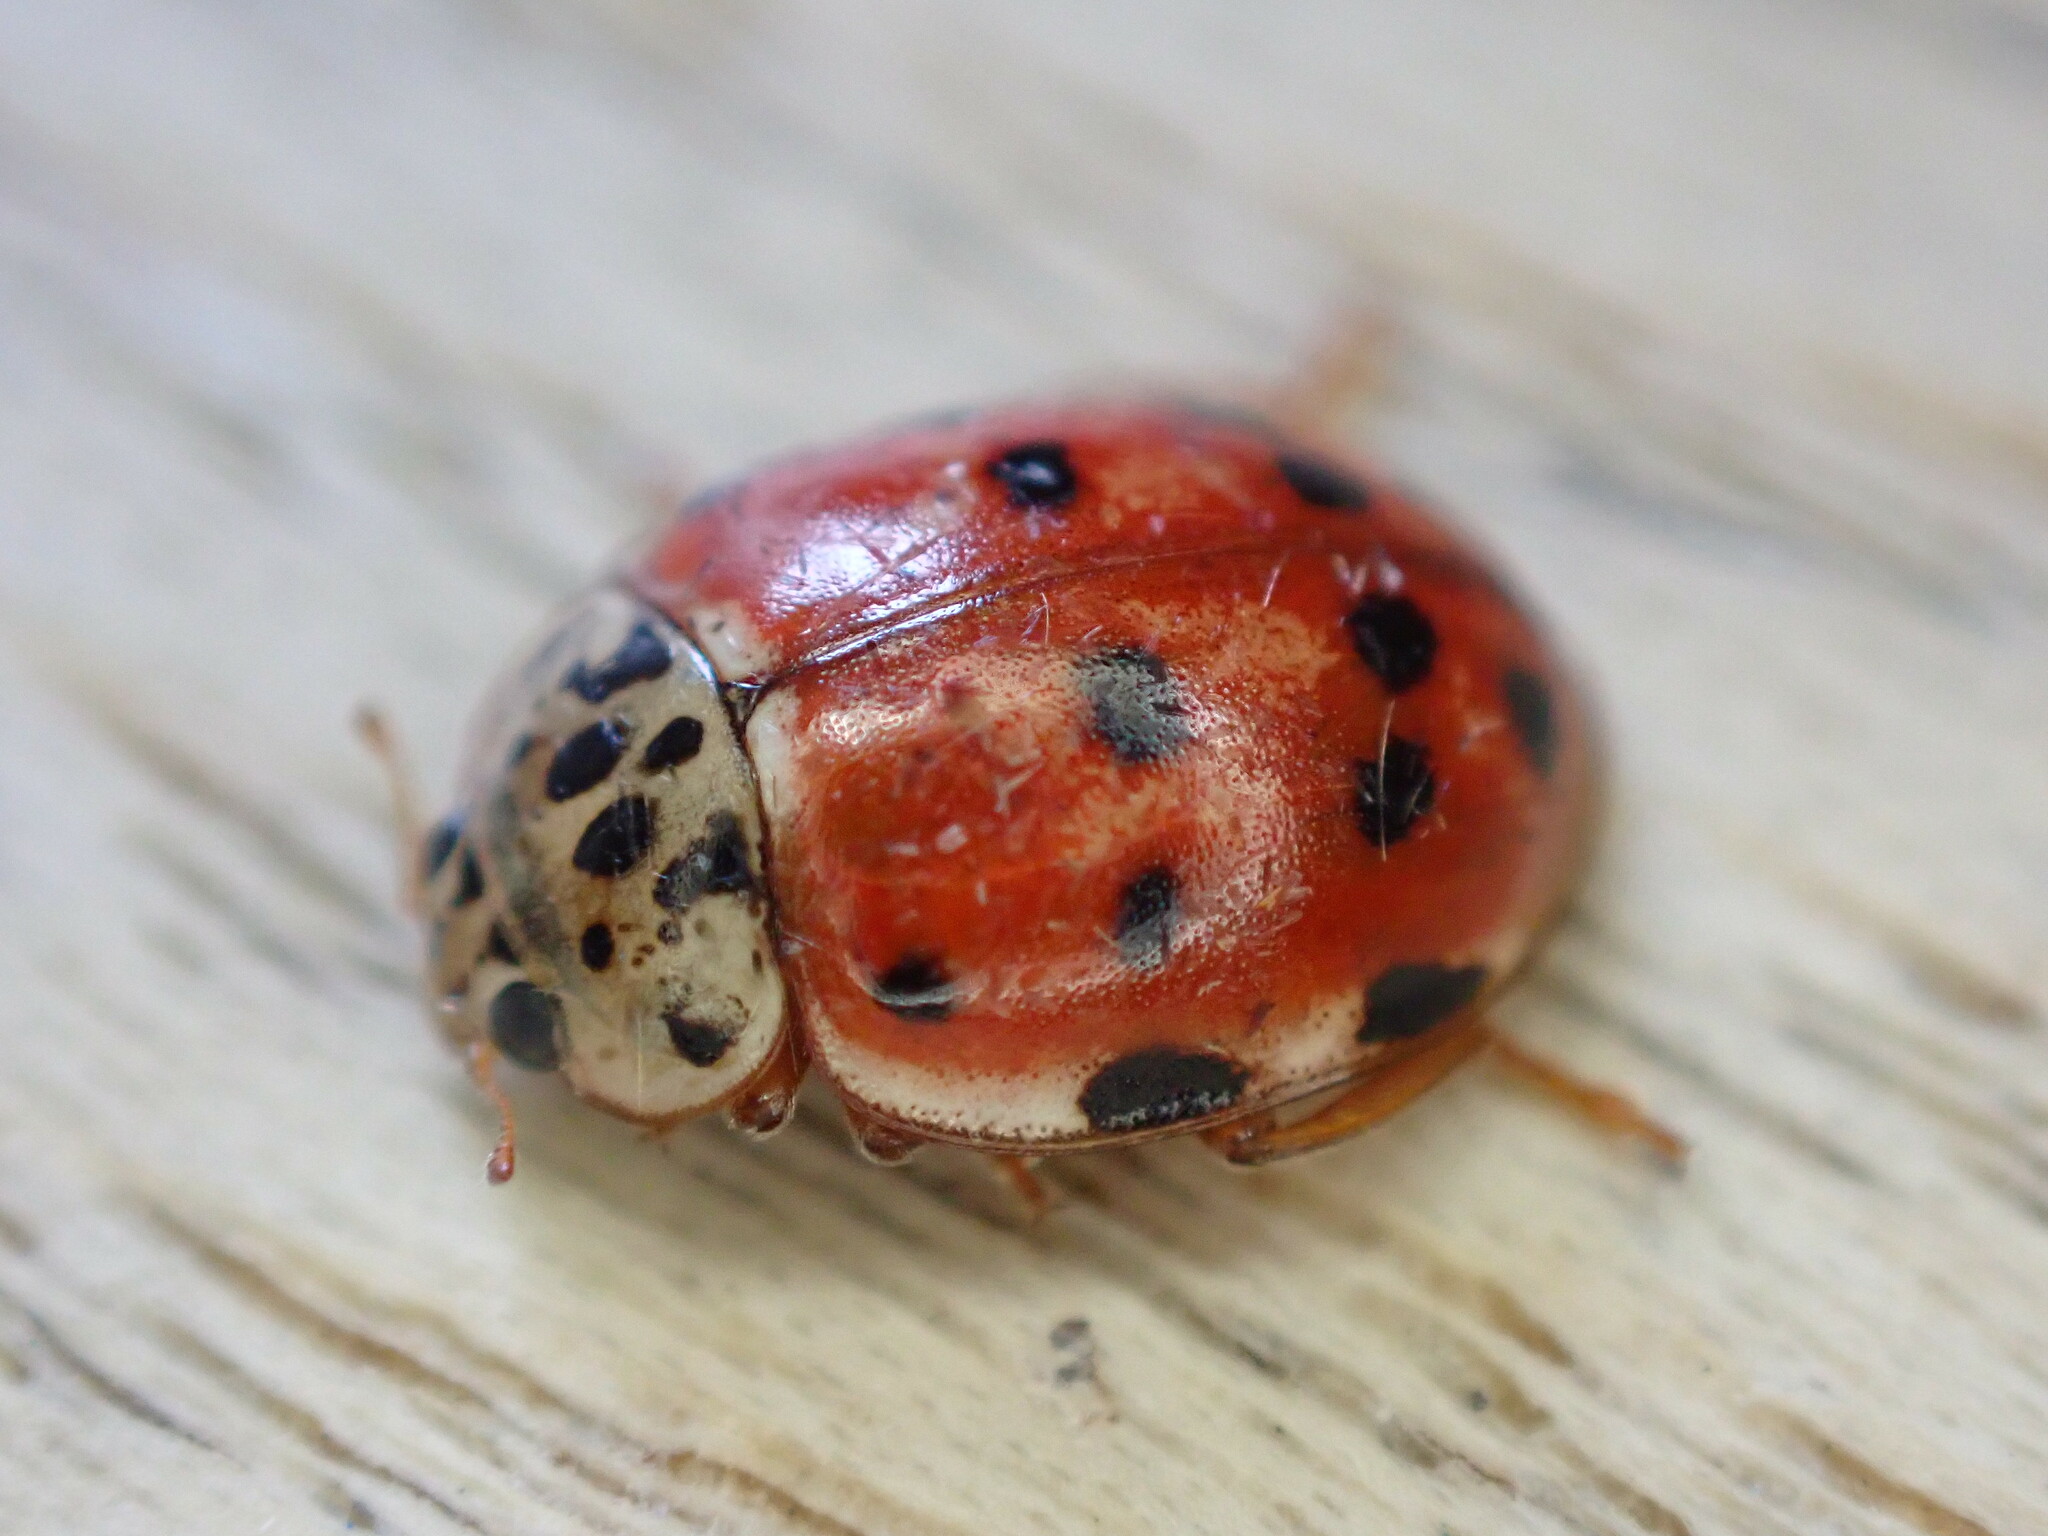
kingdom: Animalia
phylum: Arthropoda
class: Insecta
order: Coleoptera
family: Coccinellidae
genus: Harmonia
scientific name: Harmonia quadripunctata
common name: Cream-streaked ladybird
